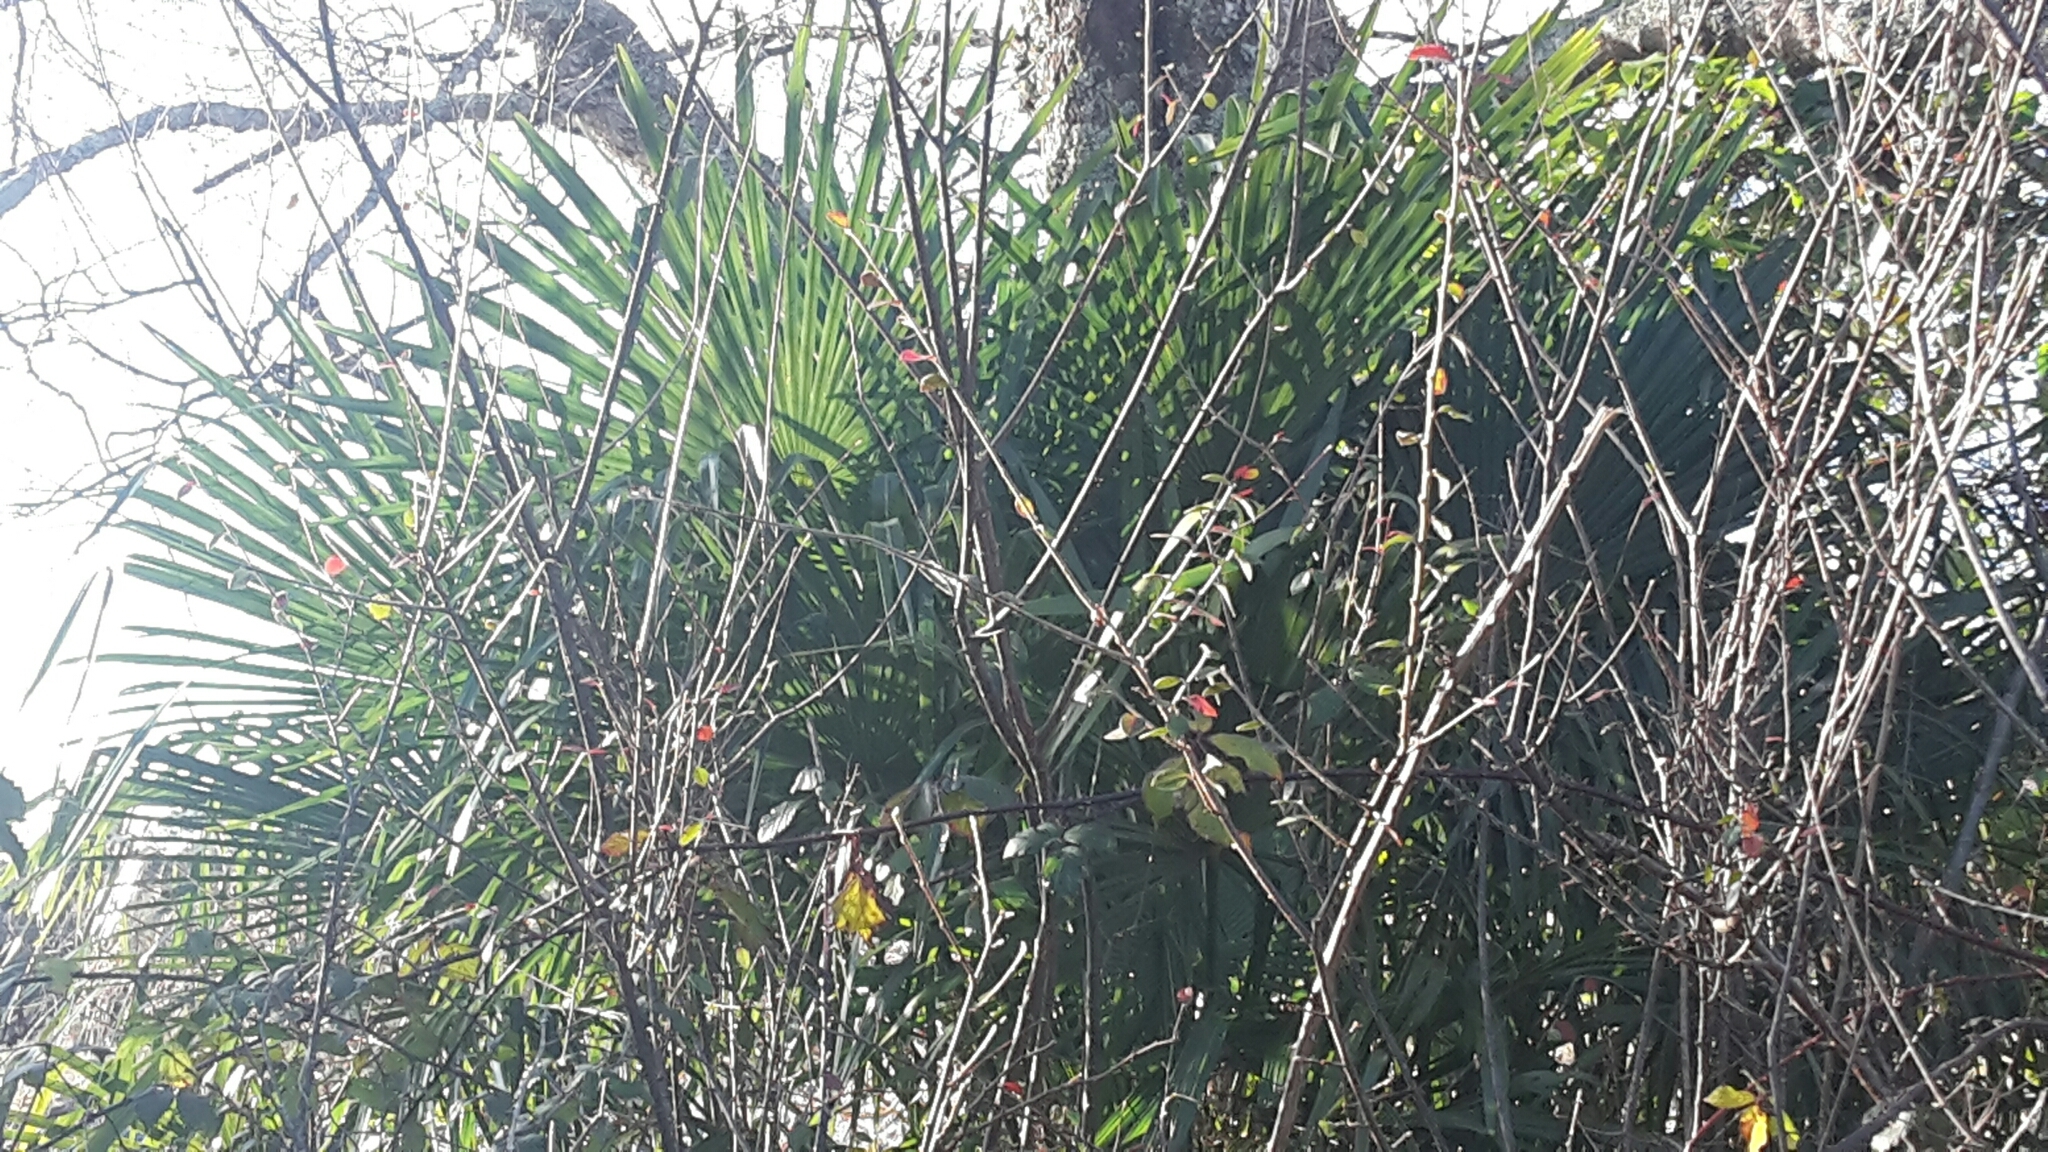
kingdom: Plantae
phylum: Tracheophyta
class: Liliopsida
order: Arecales
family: Arecaceae
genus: Trachycarpus
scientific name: Trachycarpus fortunei
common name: Chusan palm
